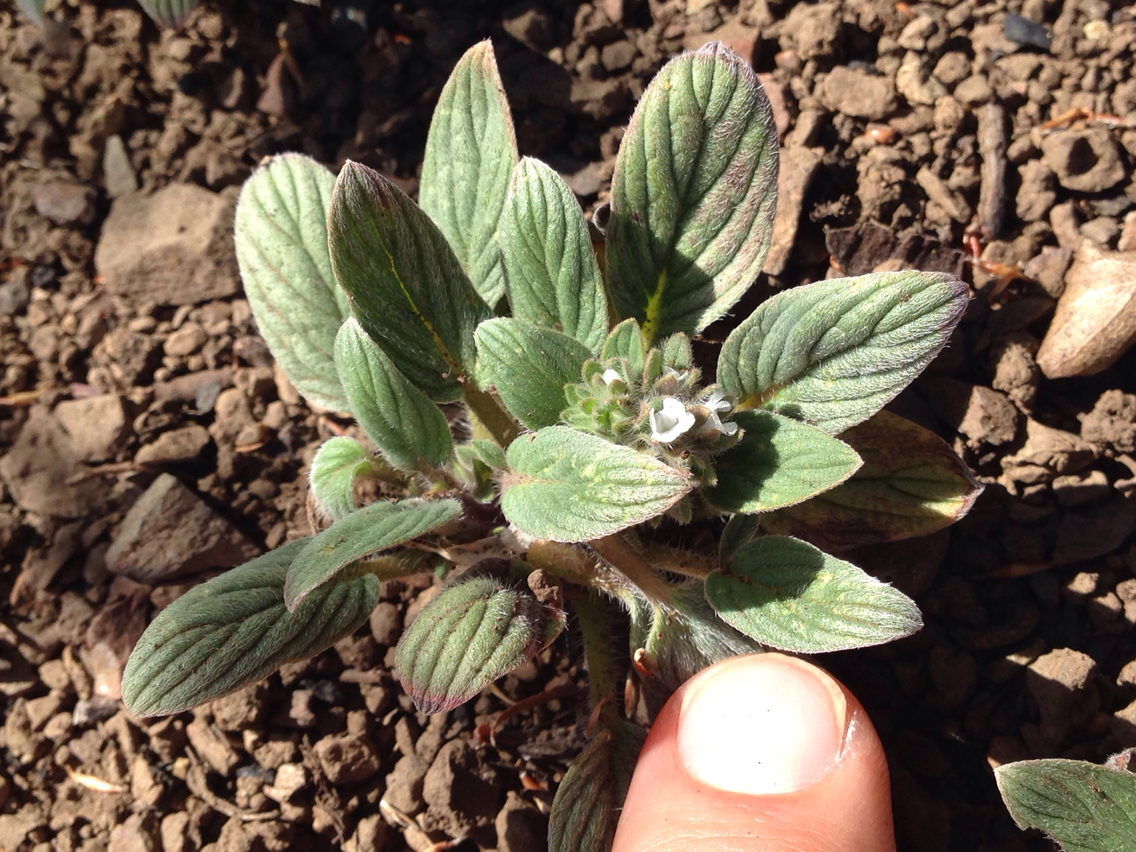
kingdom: Plantae
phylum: Tracheophyta
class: Magnoliopsida
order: Boraginales
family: Hydrophyllaceae
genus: Phacelia
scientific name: Phacelia phacelioides
